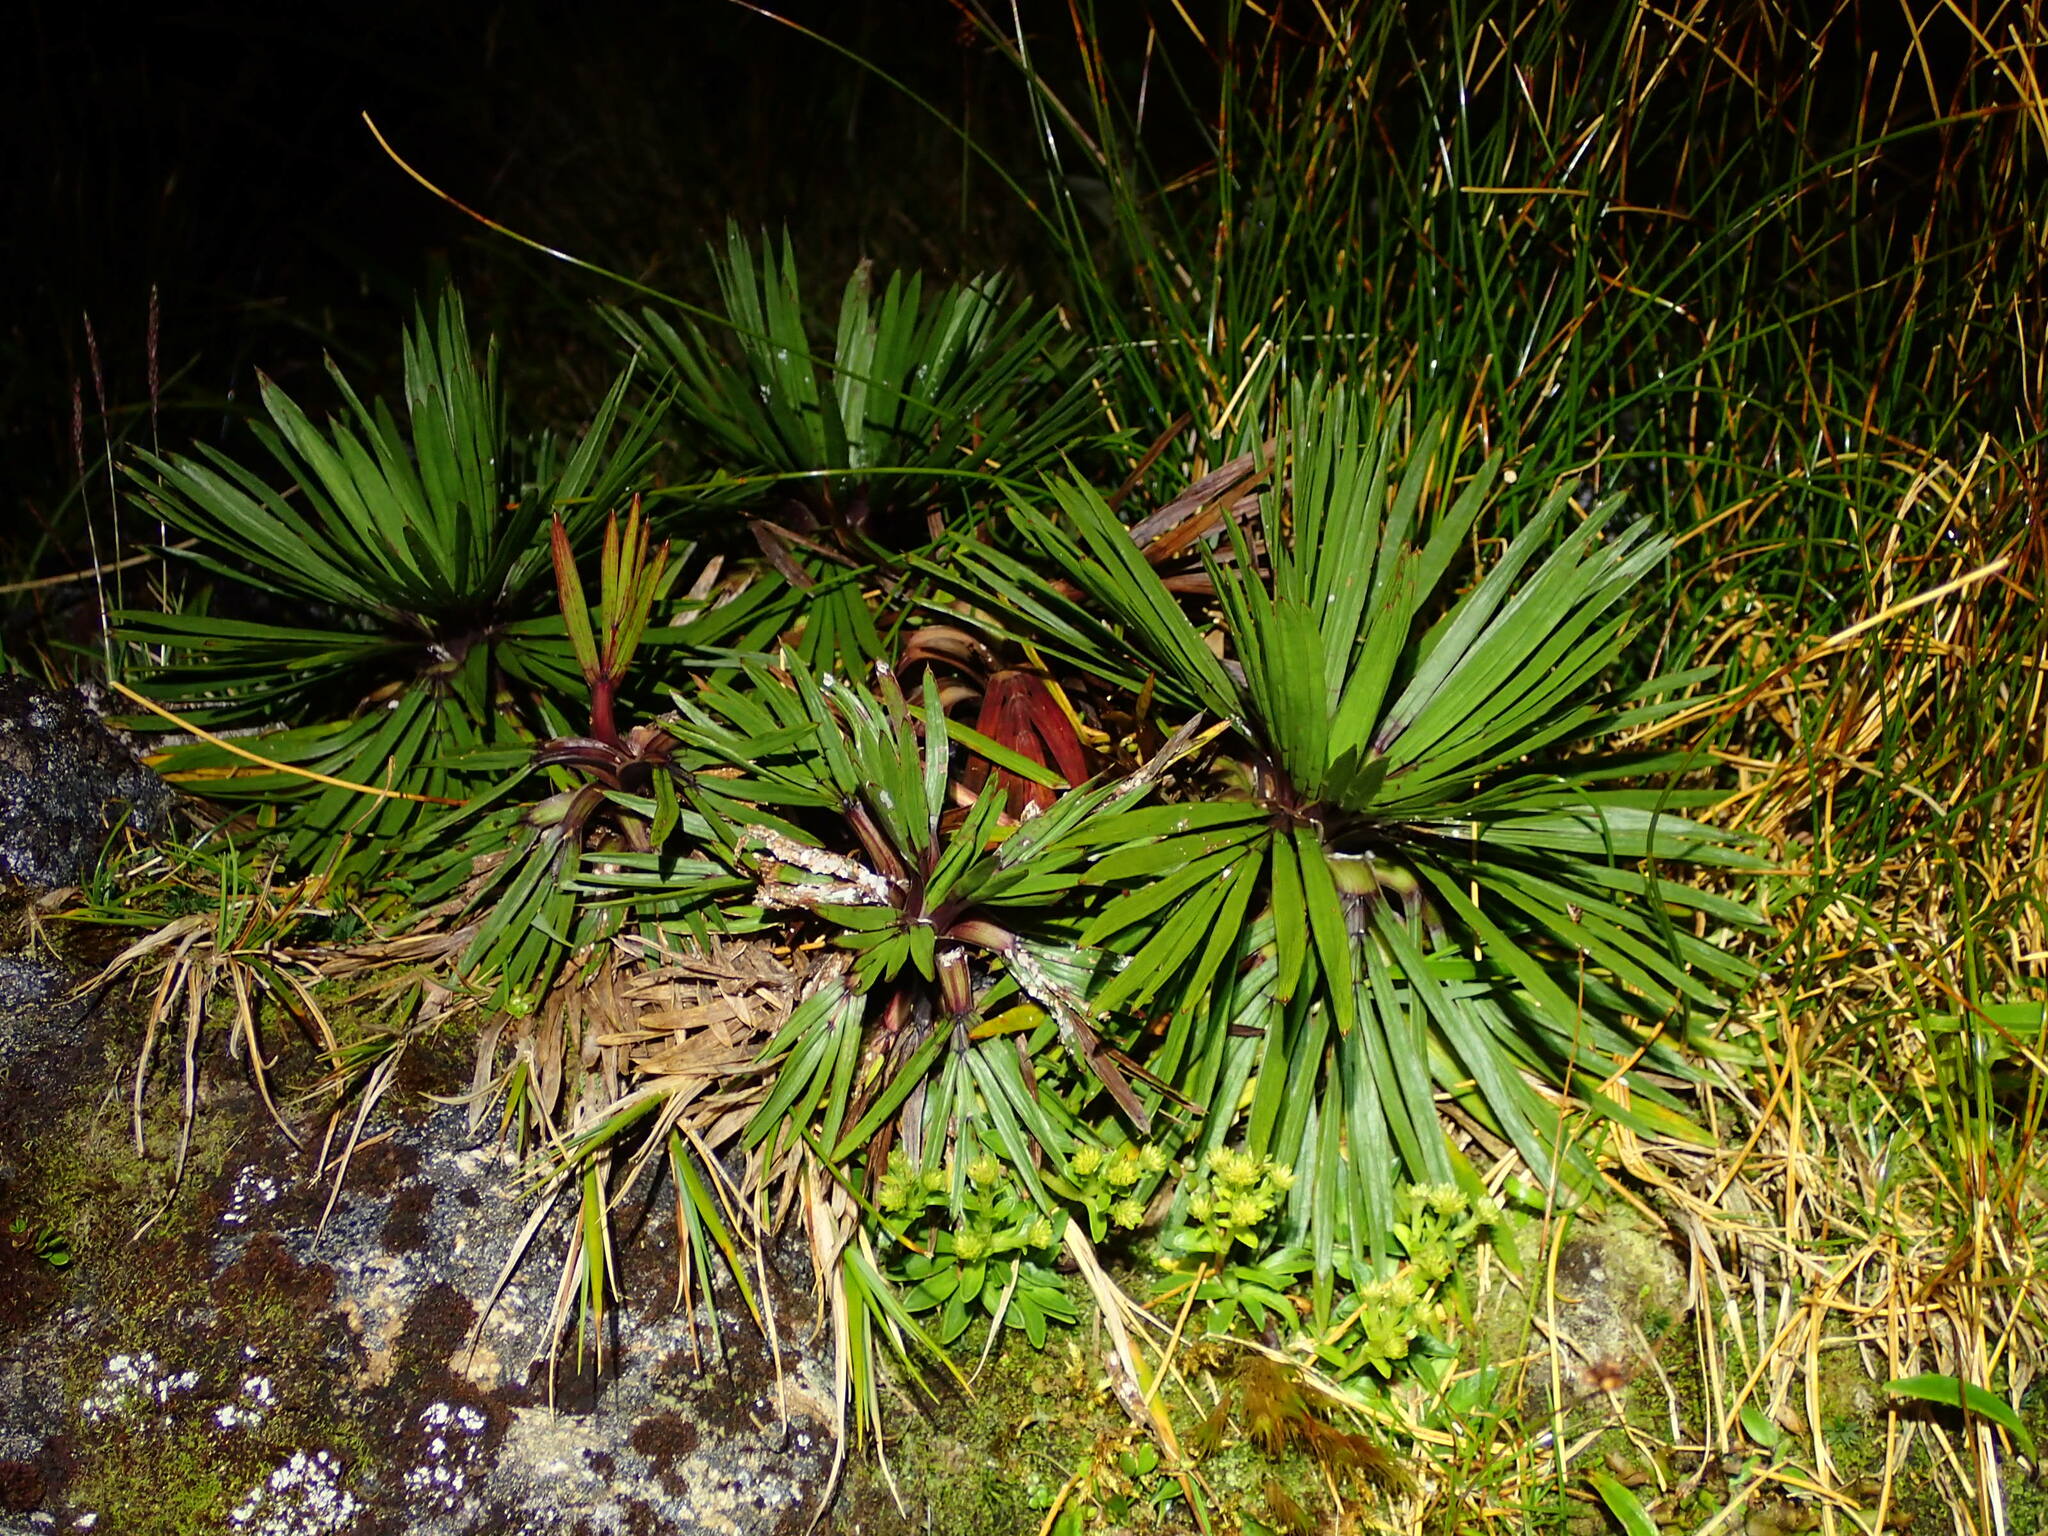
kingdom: Plantae
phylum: Tracheophyta
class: Magnoliopsida
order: Apiales
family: Apiaceae
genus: Aciphylla
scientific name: Aciphylla congesta
